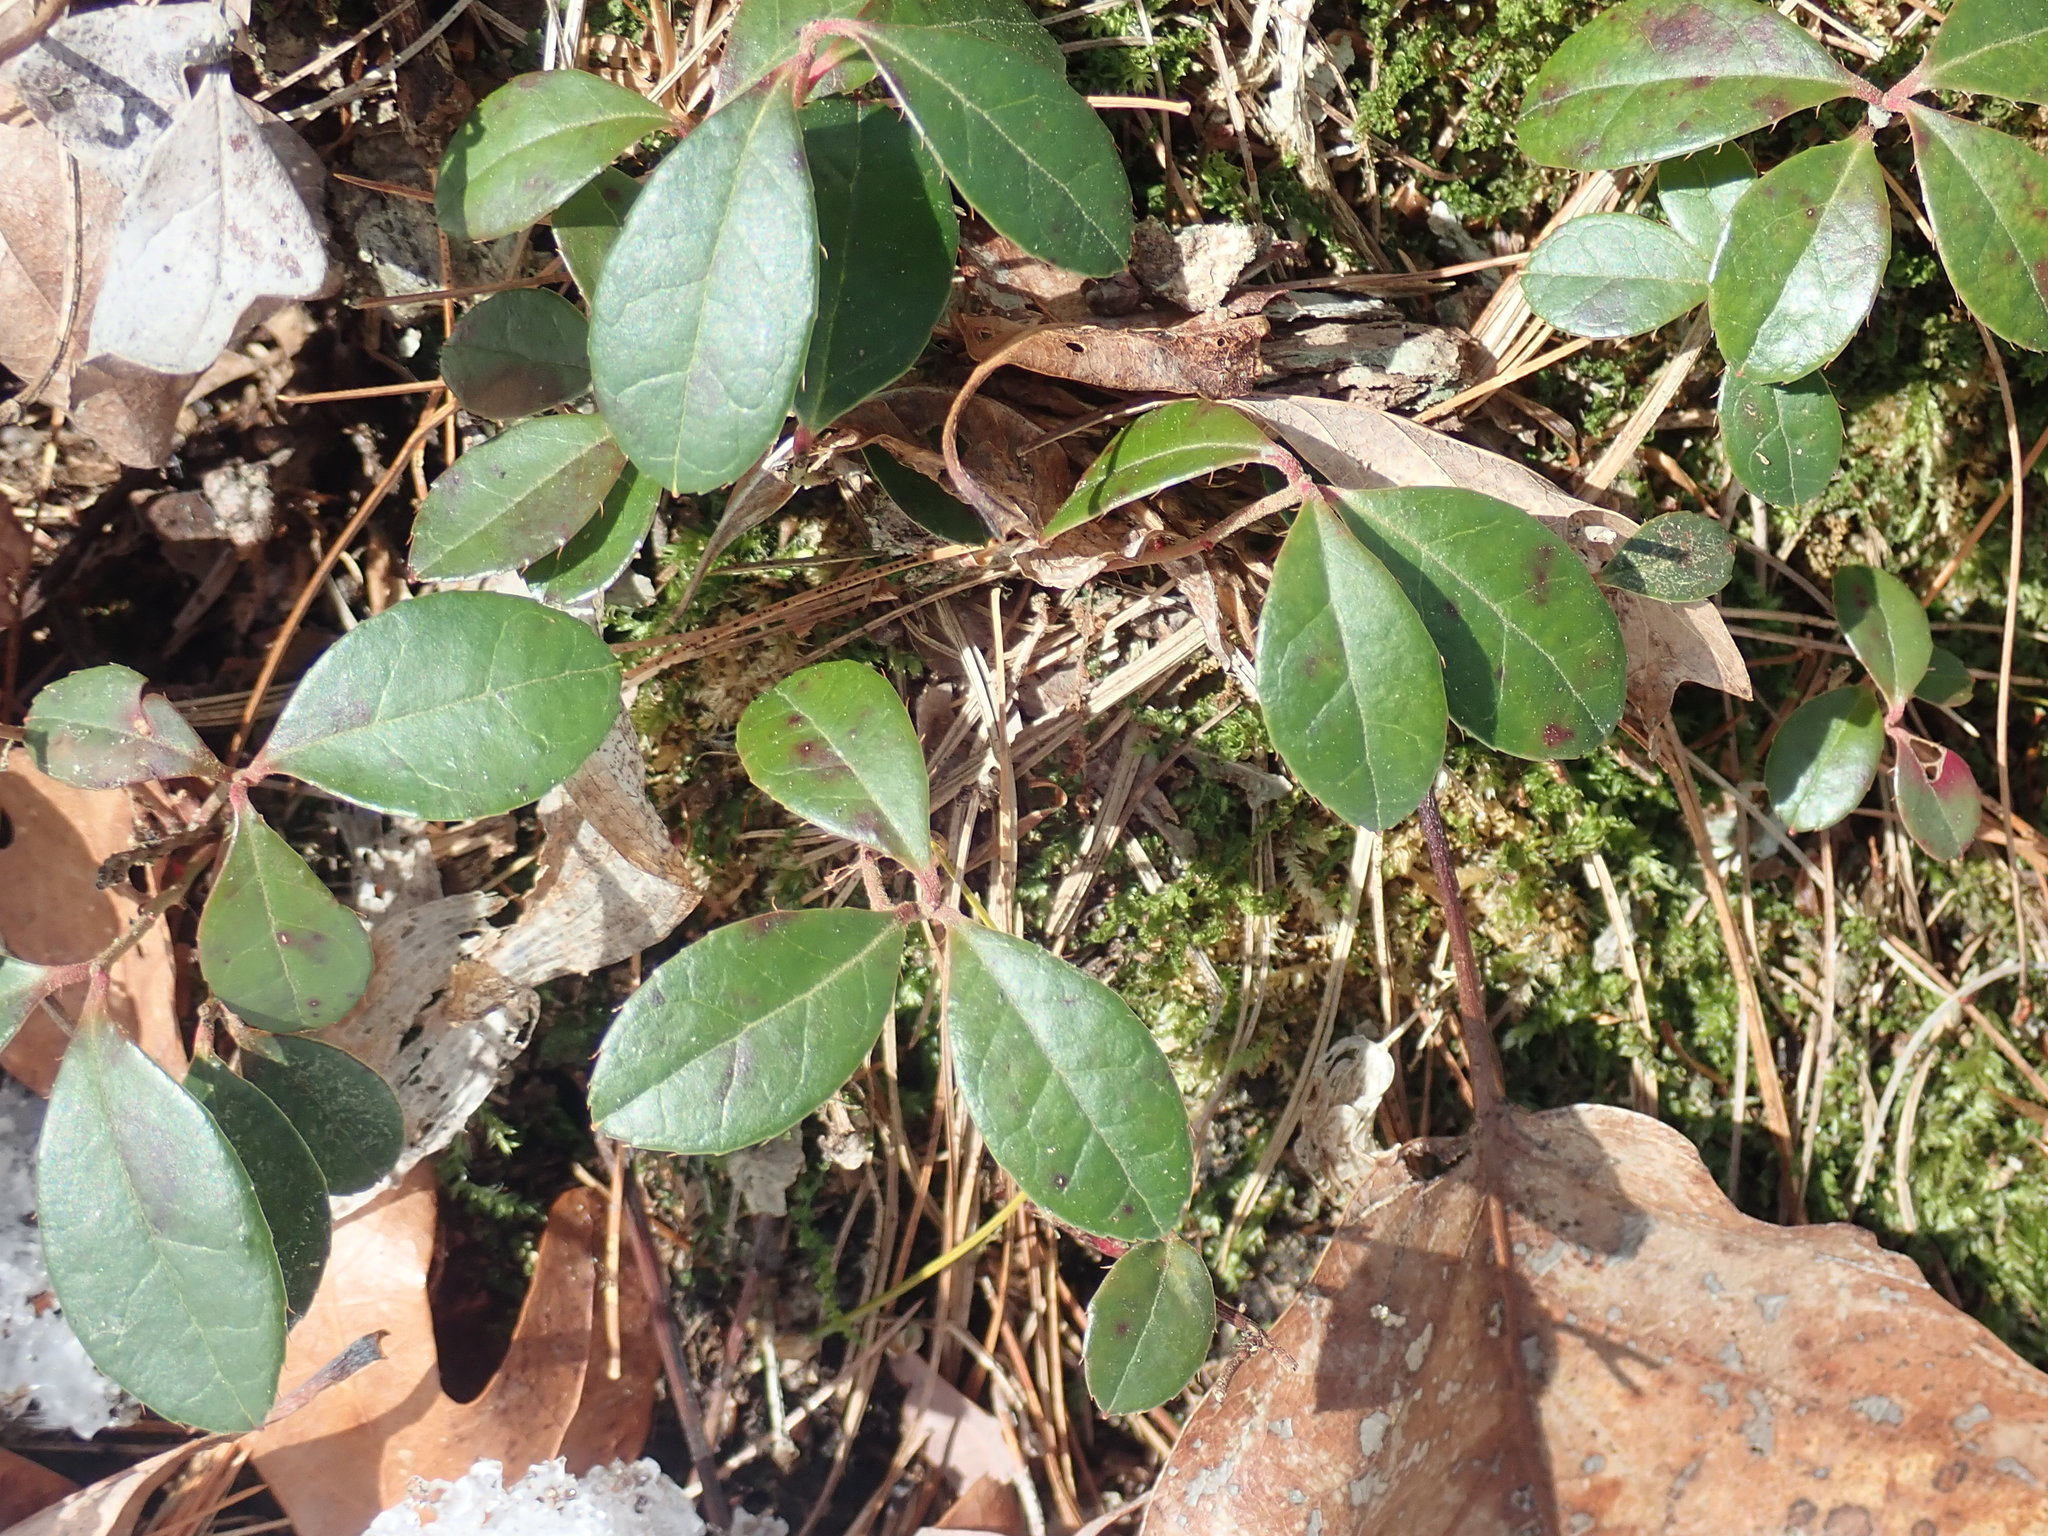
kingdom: Plantae
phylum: Tracheophyta
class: Magnoliopsida
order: Ericales
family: Ericaceae
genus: Gaultheria
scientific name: Gaultheria procumbens
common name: Checkerberry
